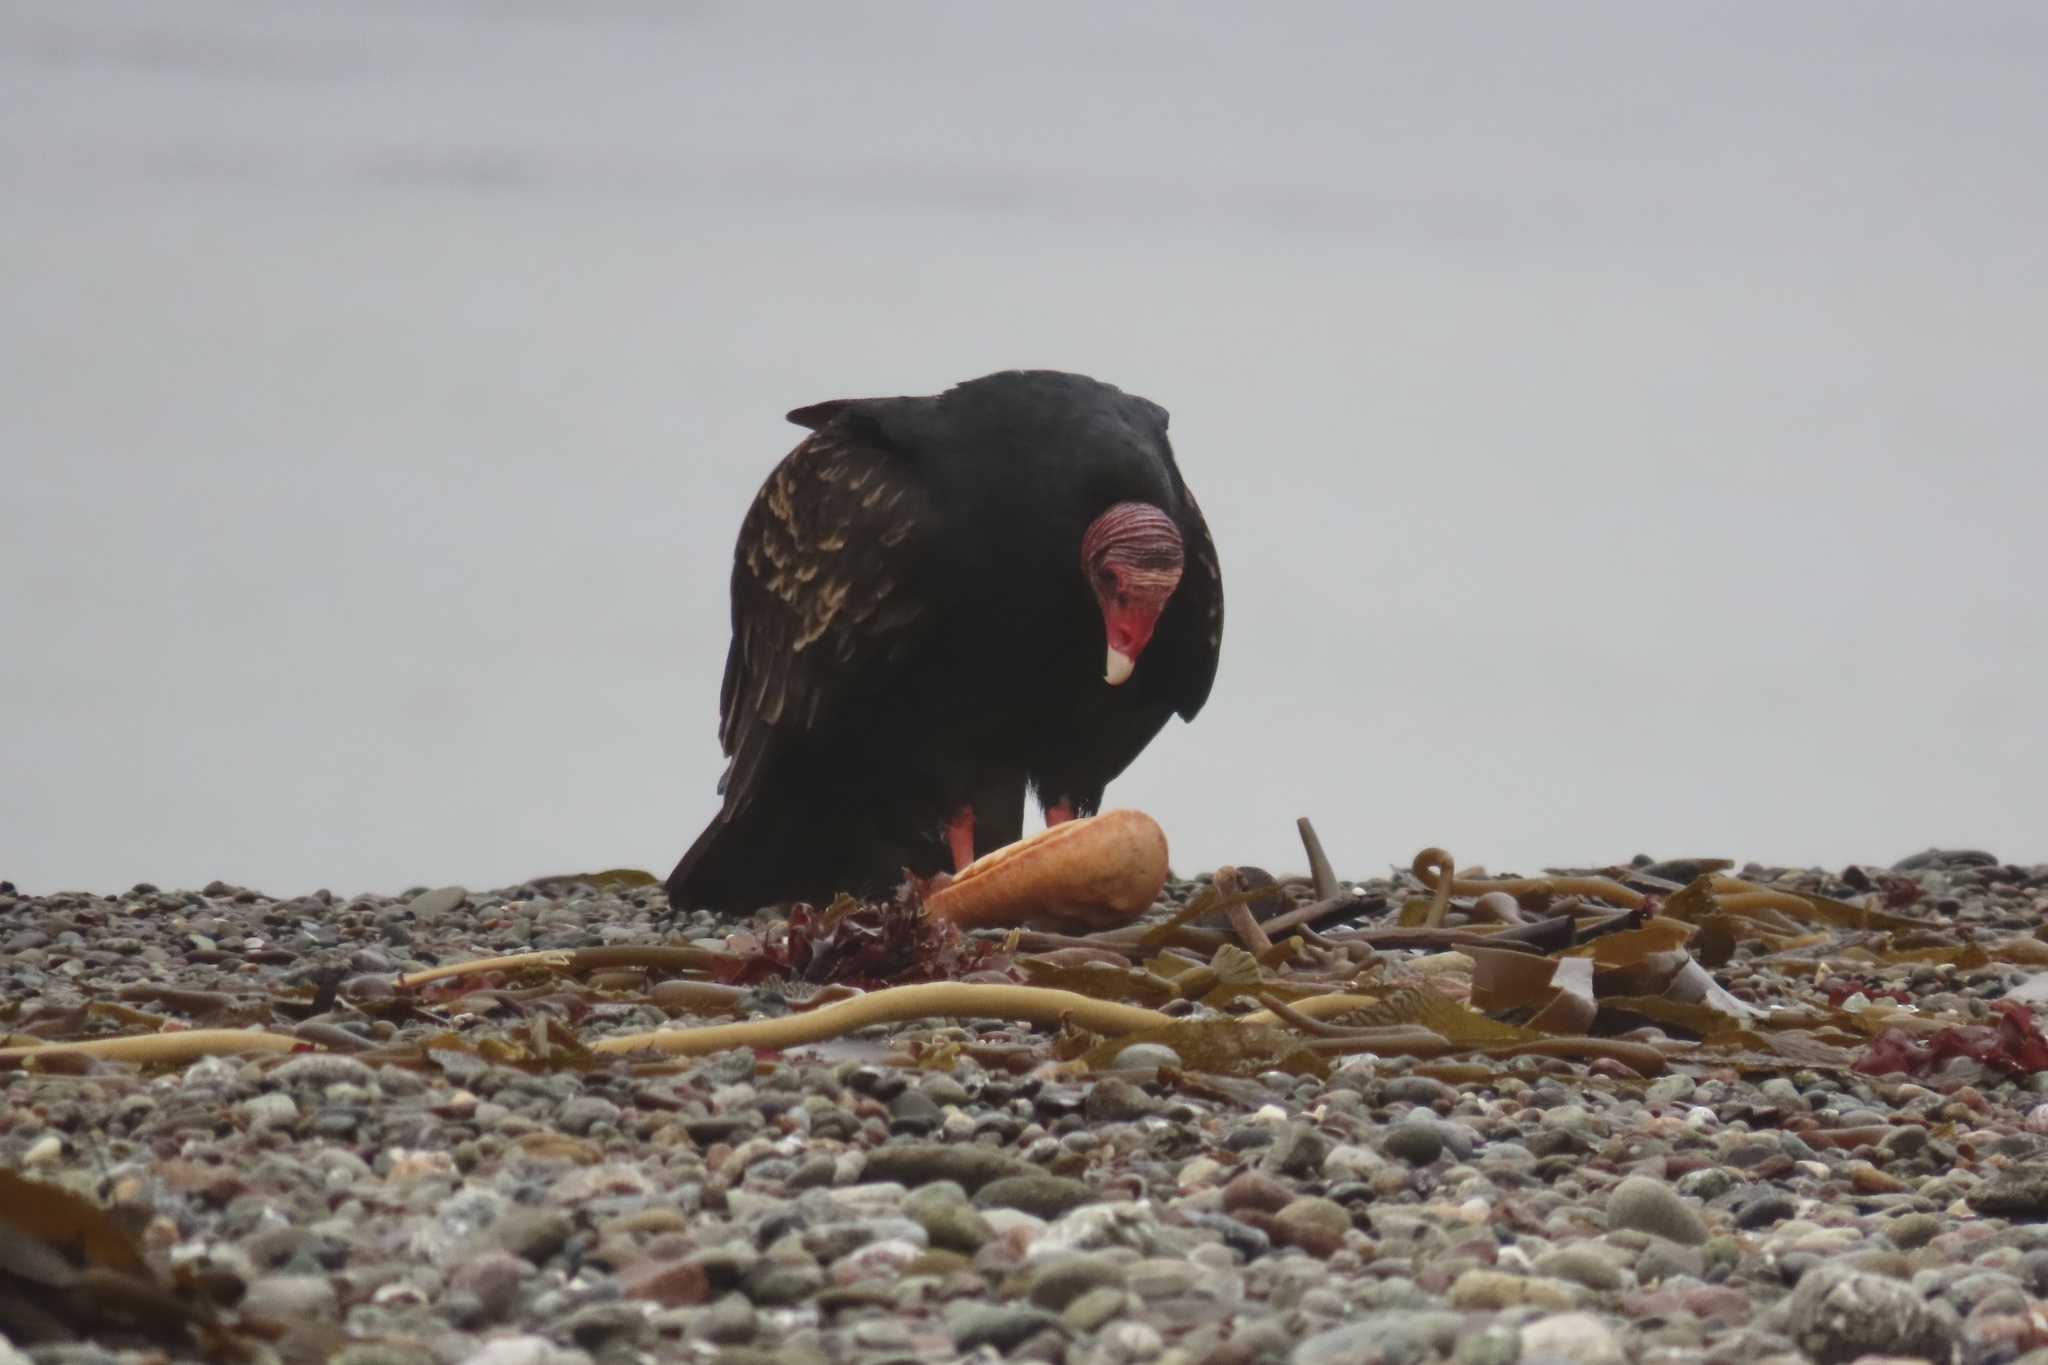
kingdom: Animalia
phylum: Chordata
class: Aves
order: Accipitriformes
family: Cathartidae
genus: Cathartes
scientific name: Cathartes aura
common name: Turkey vulture
